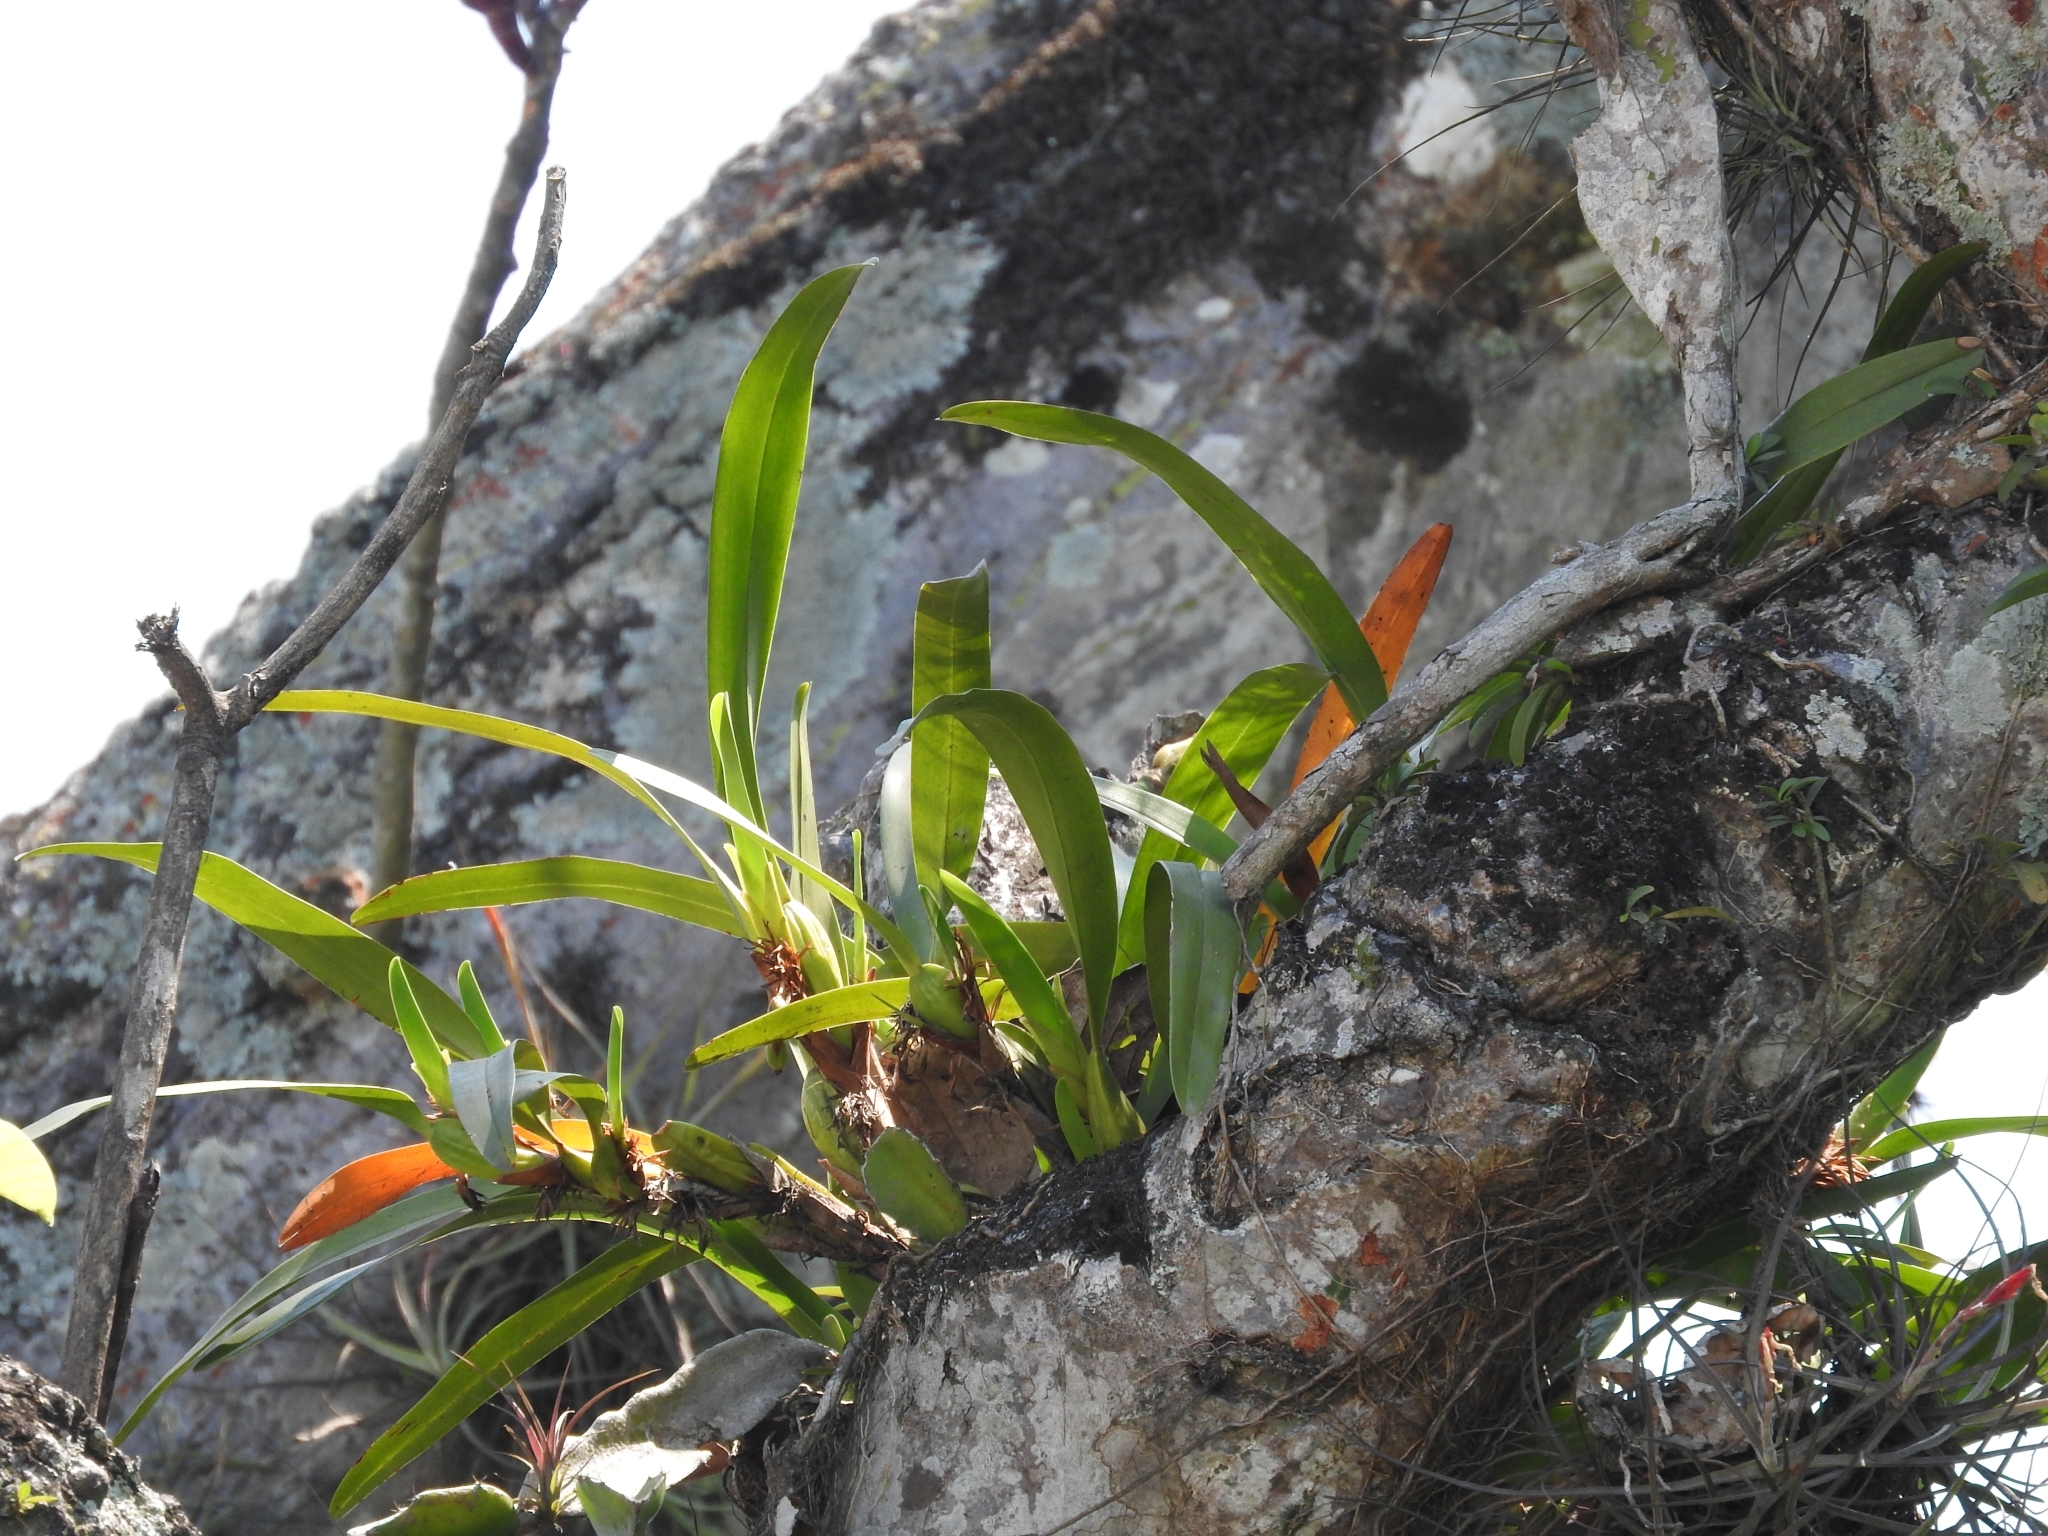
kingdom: Plantae
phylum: Tracheophyta
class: Liliopsida
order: Asparagales
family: Orchidaceae
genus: Maxillaria
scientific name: Maxillaria densa
